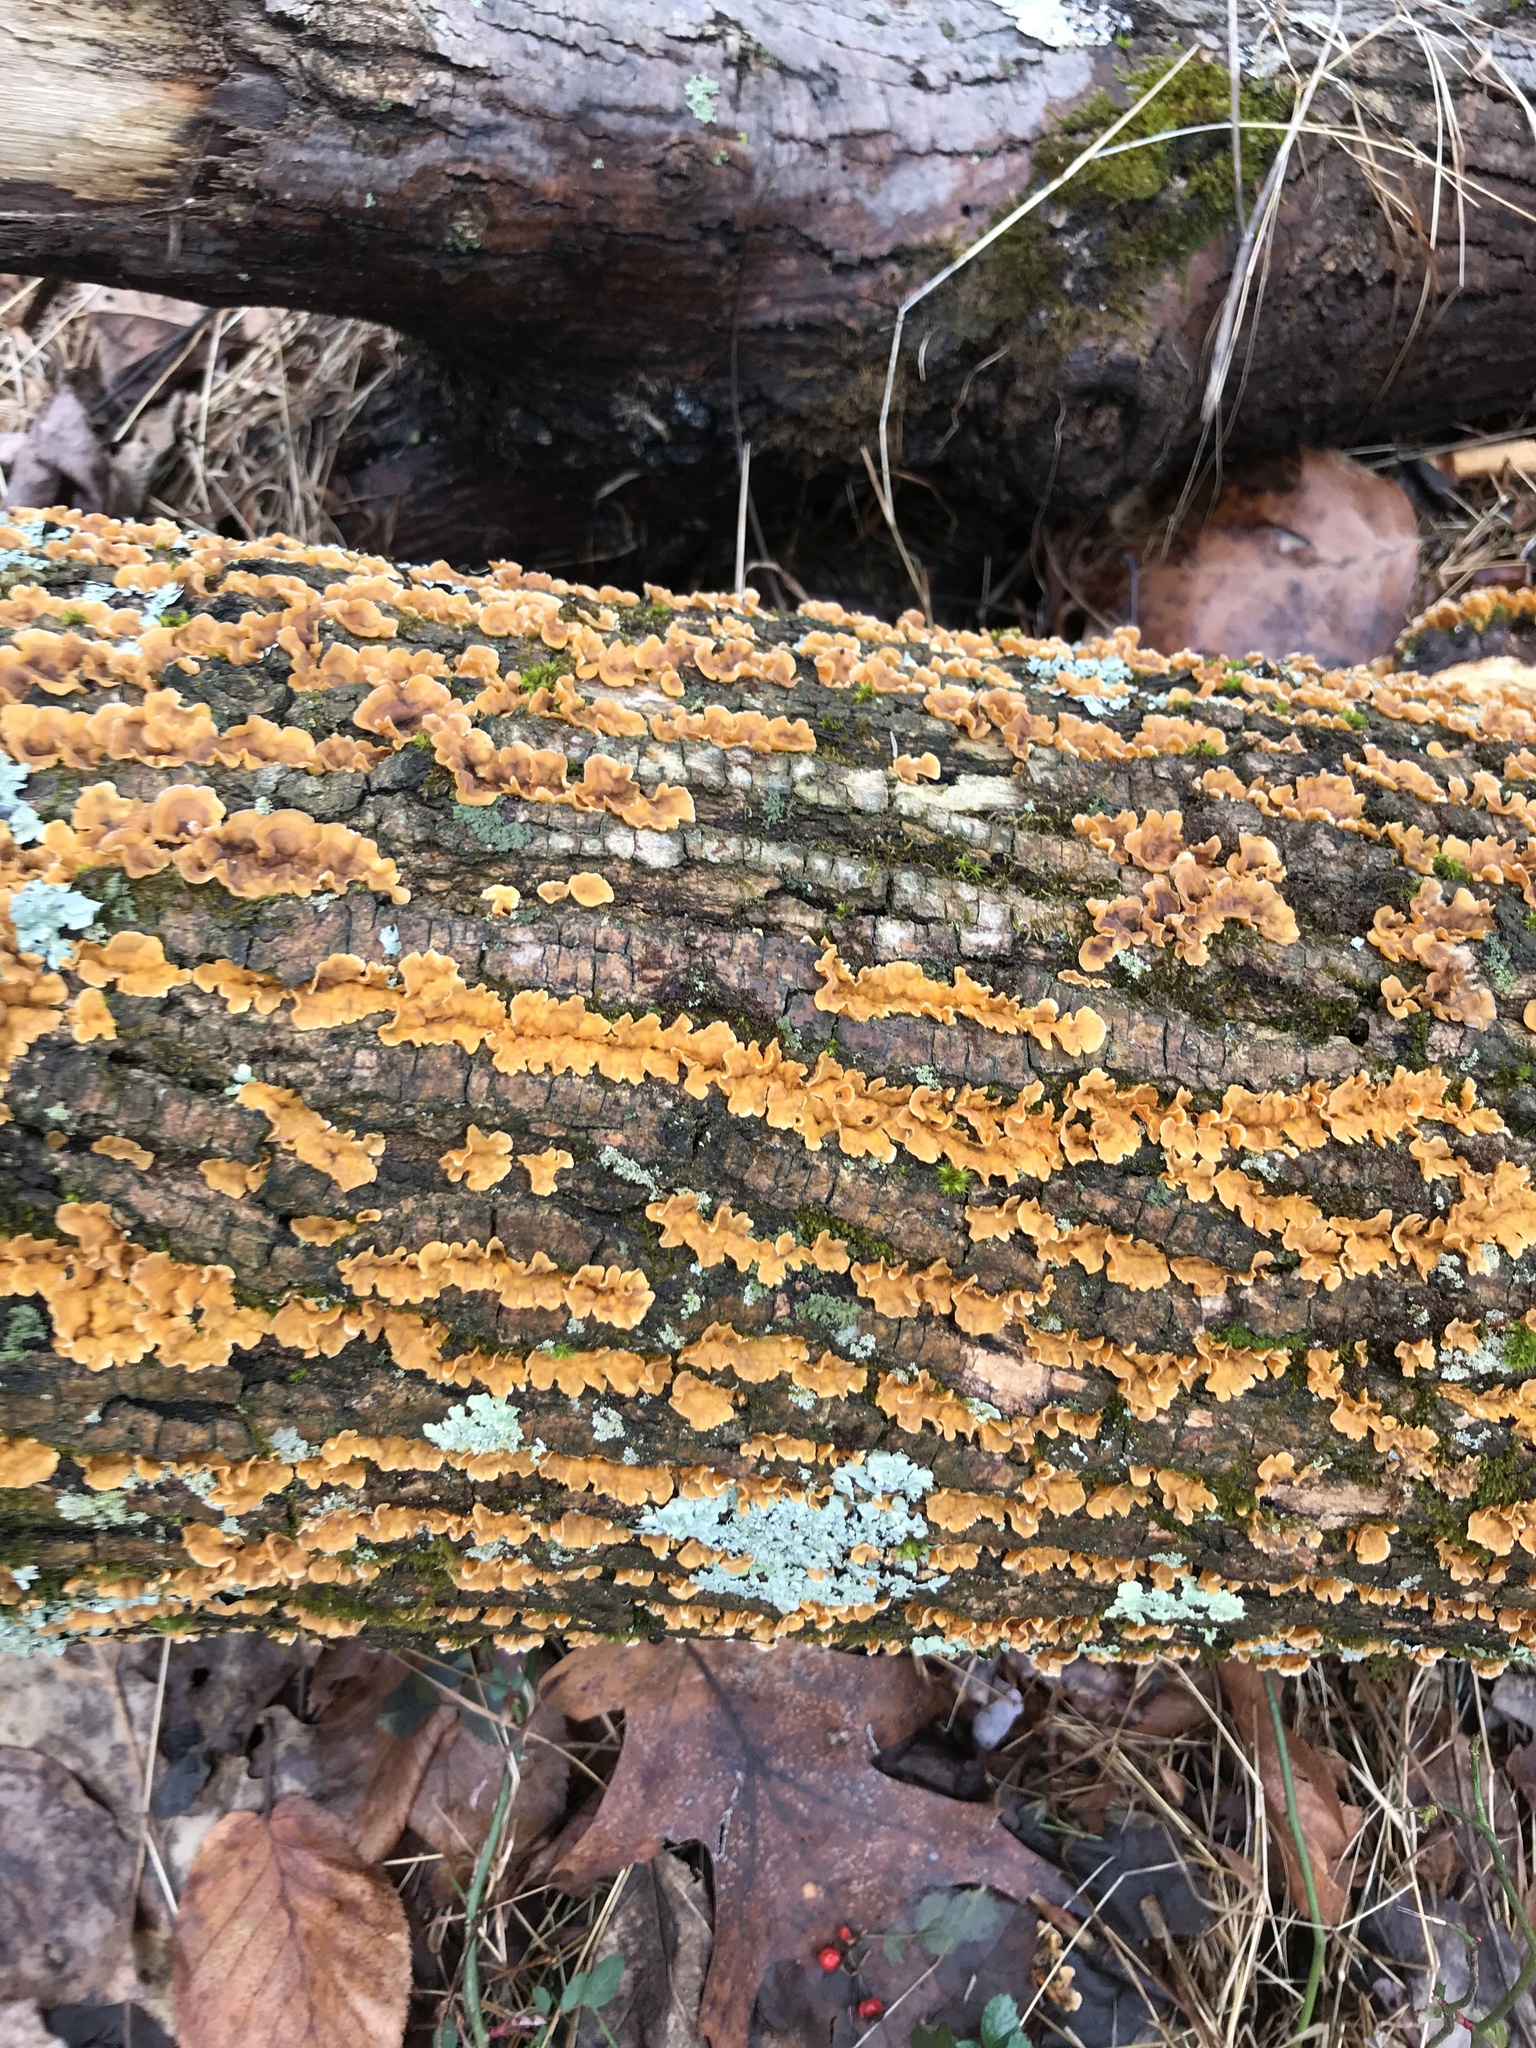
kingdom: Fungi
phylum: Basidiomycota
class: Agaricomycetes
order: Russulales
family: Stereaceae
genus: Stereum
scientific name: Stereum complicatum
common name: Crowded parchment
